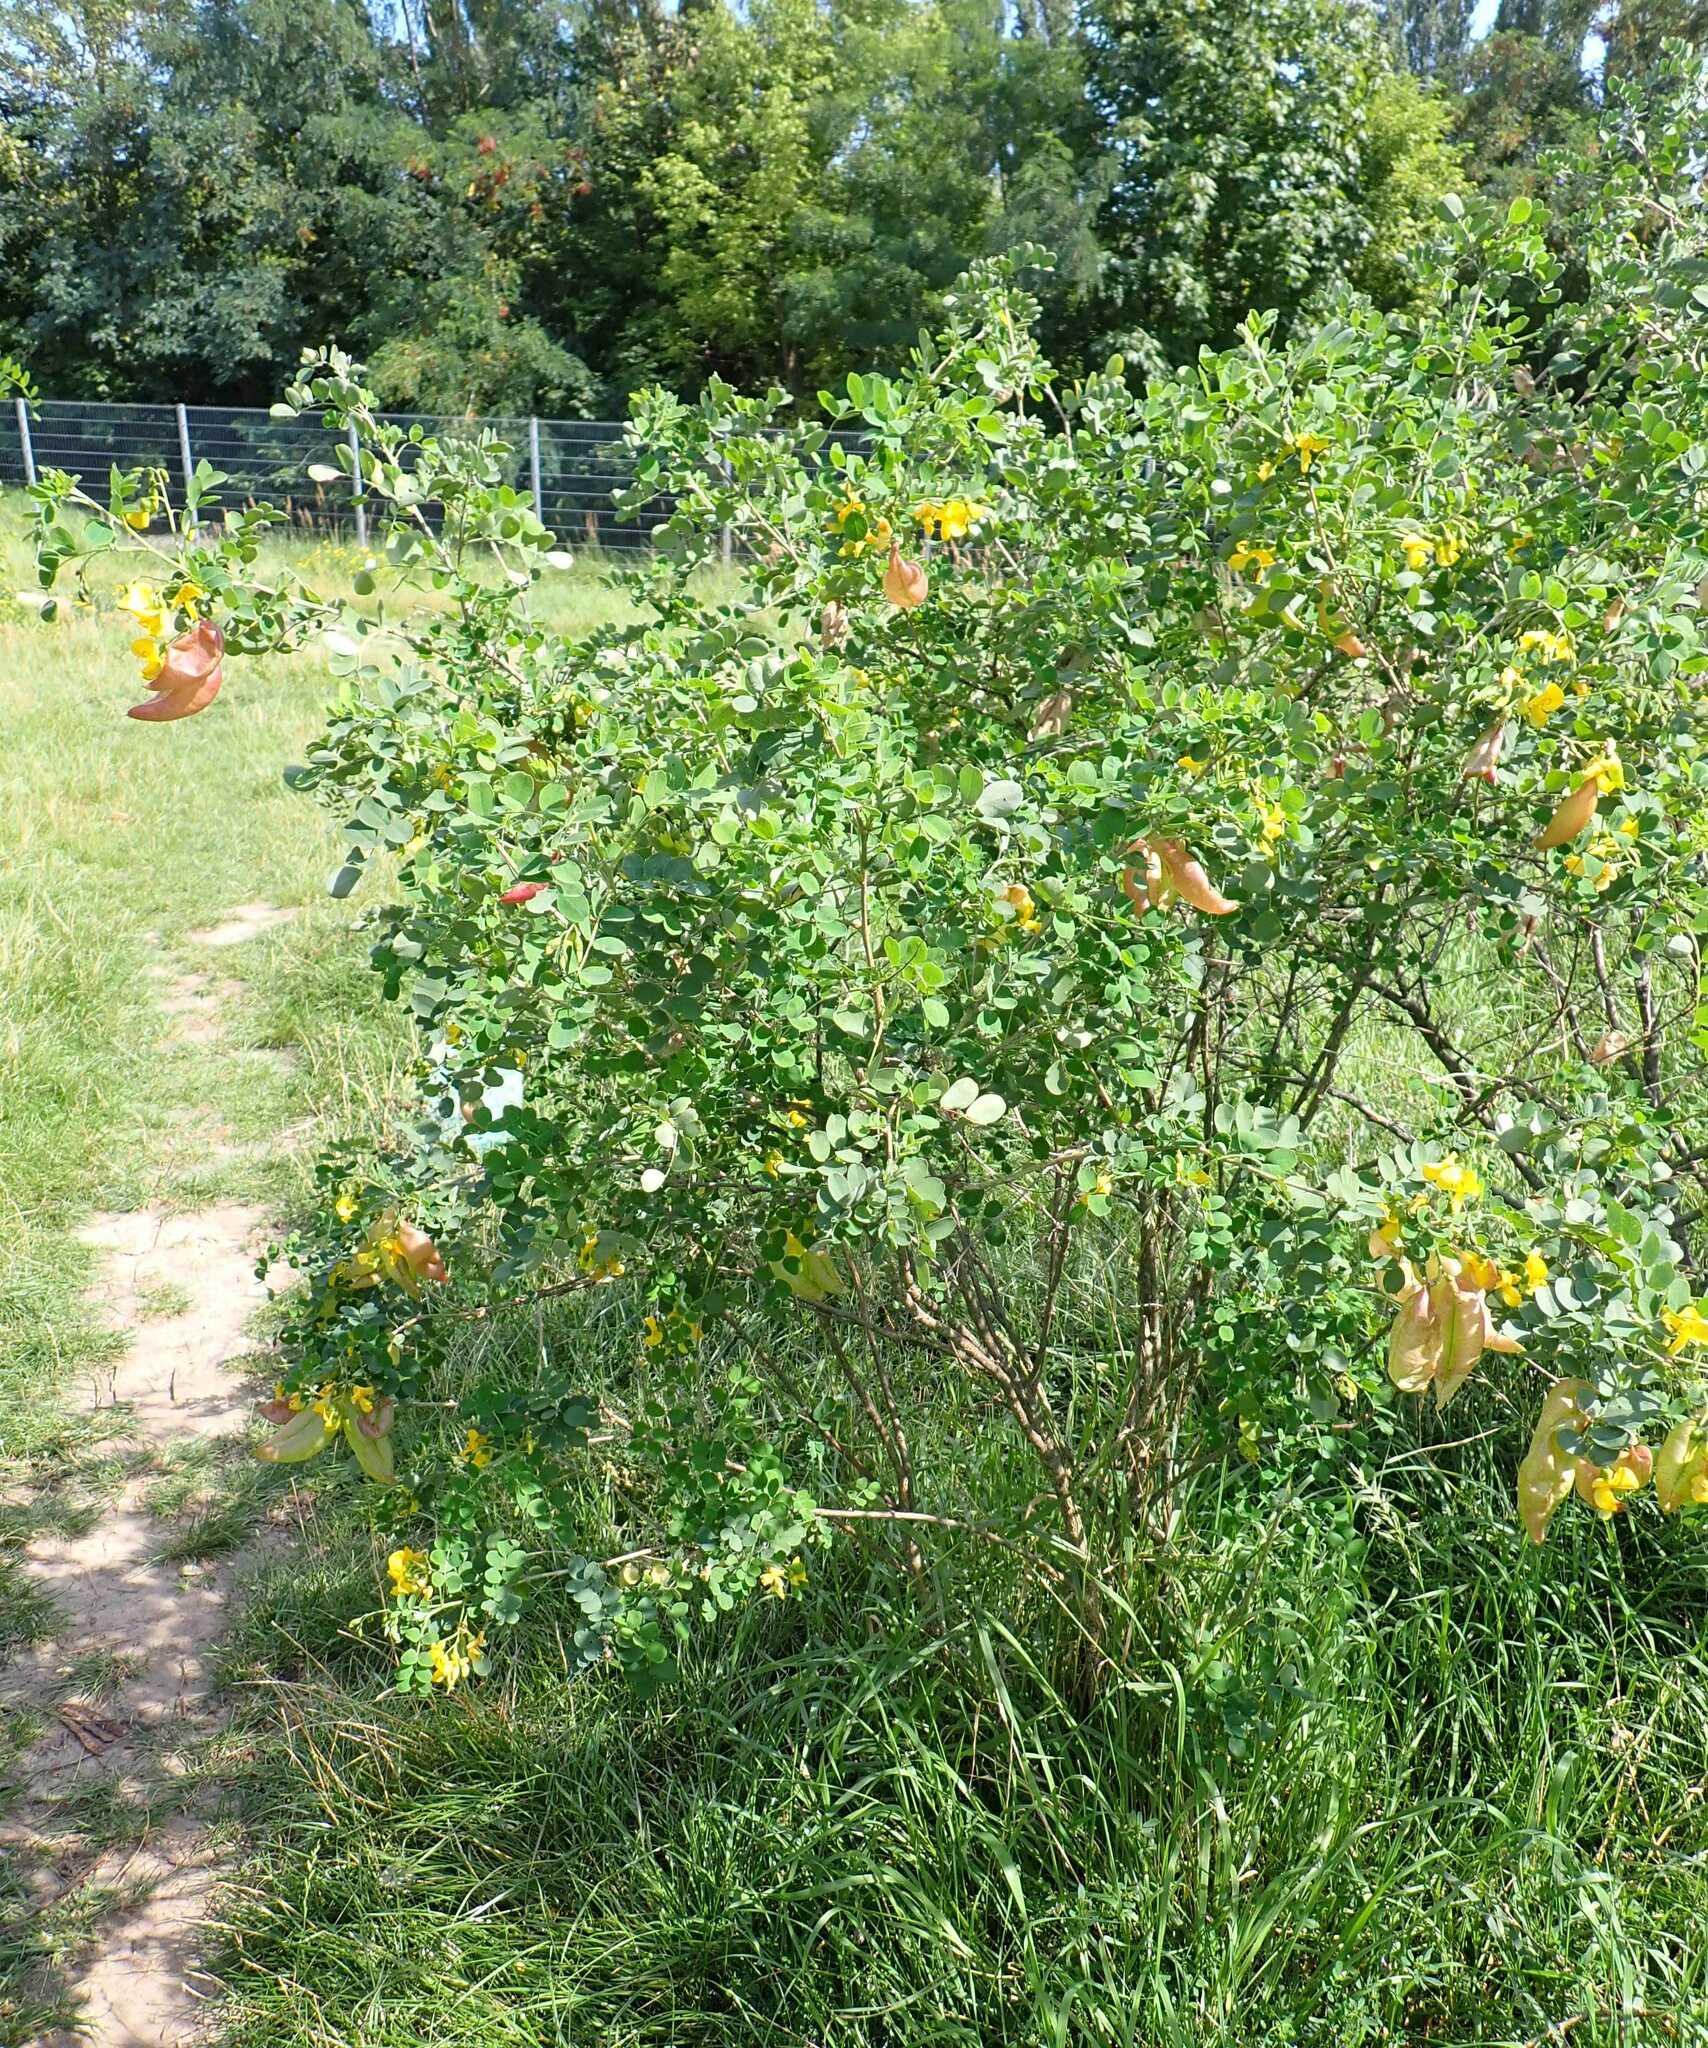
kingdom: Plantae
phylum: Tracheophyta
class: Magnoliopsida
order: Fabales
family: Fabaceae
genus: Colutea
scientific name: Colutea arborescens
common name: Bladder-senna
